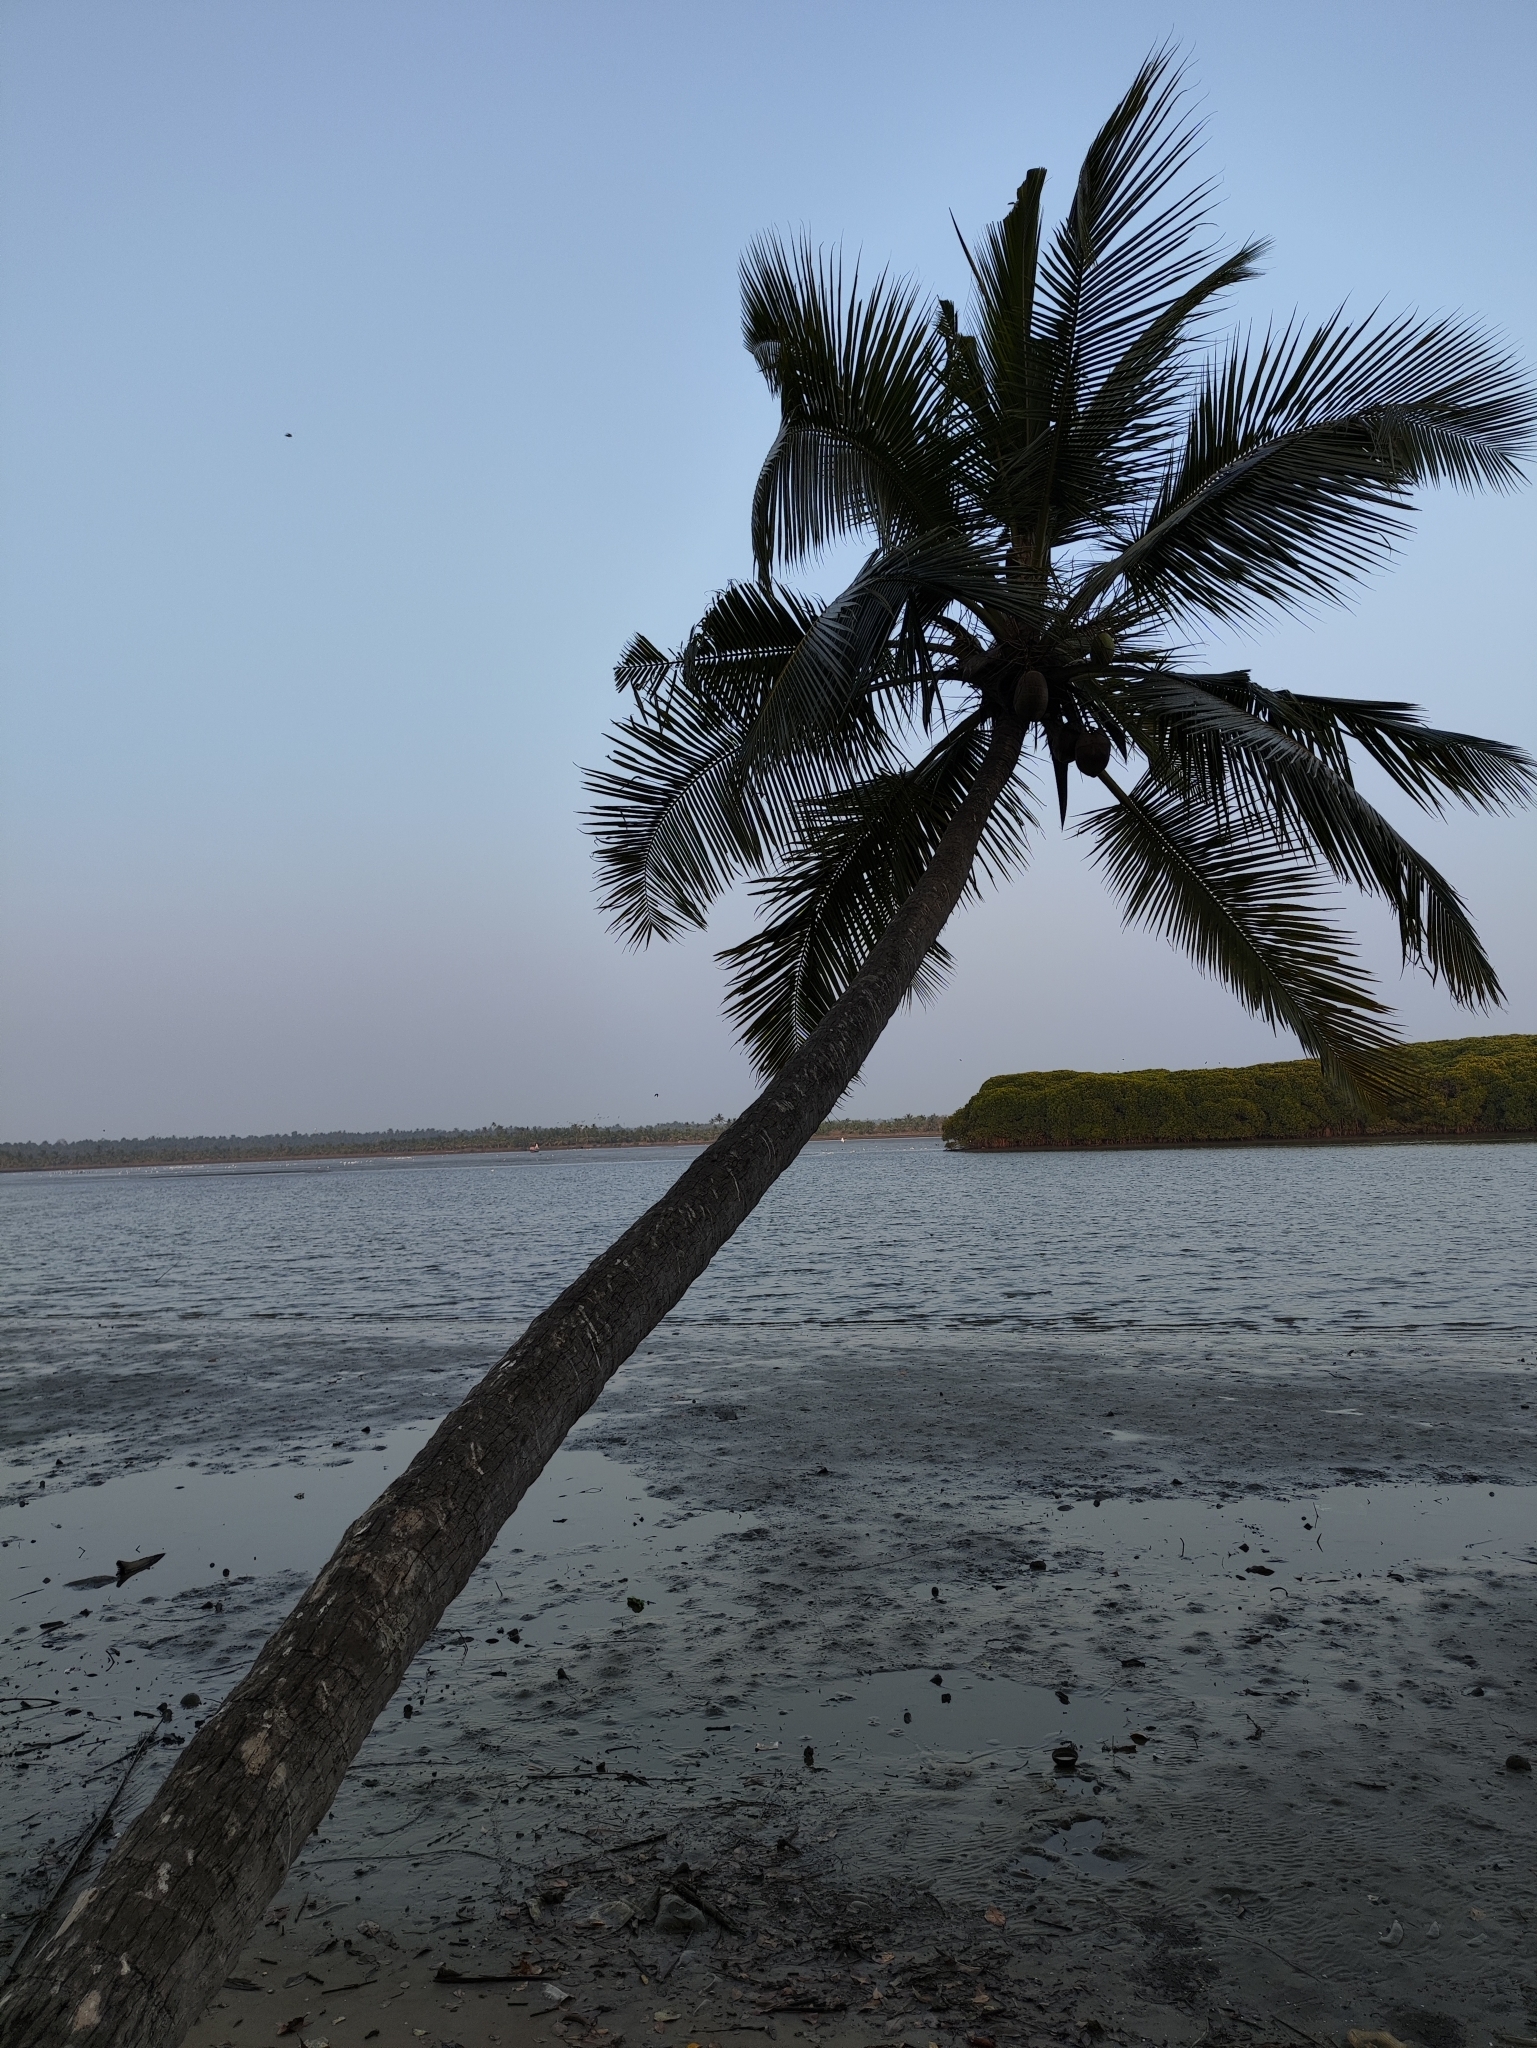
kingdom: Plantae
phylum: Tracheophyta
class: Liliopsida
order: Arecales
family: Arecaceae
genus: Cocos
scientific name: Cocos nucifera
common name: Coconut palm
